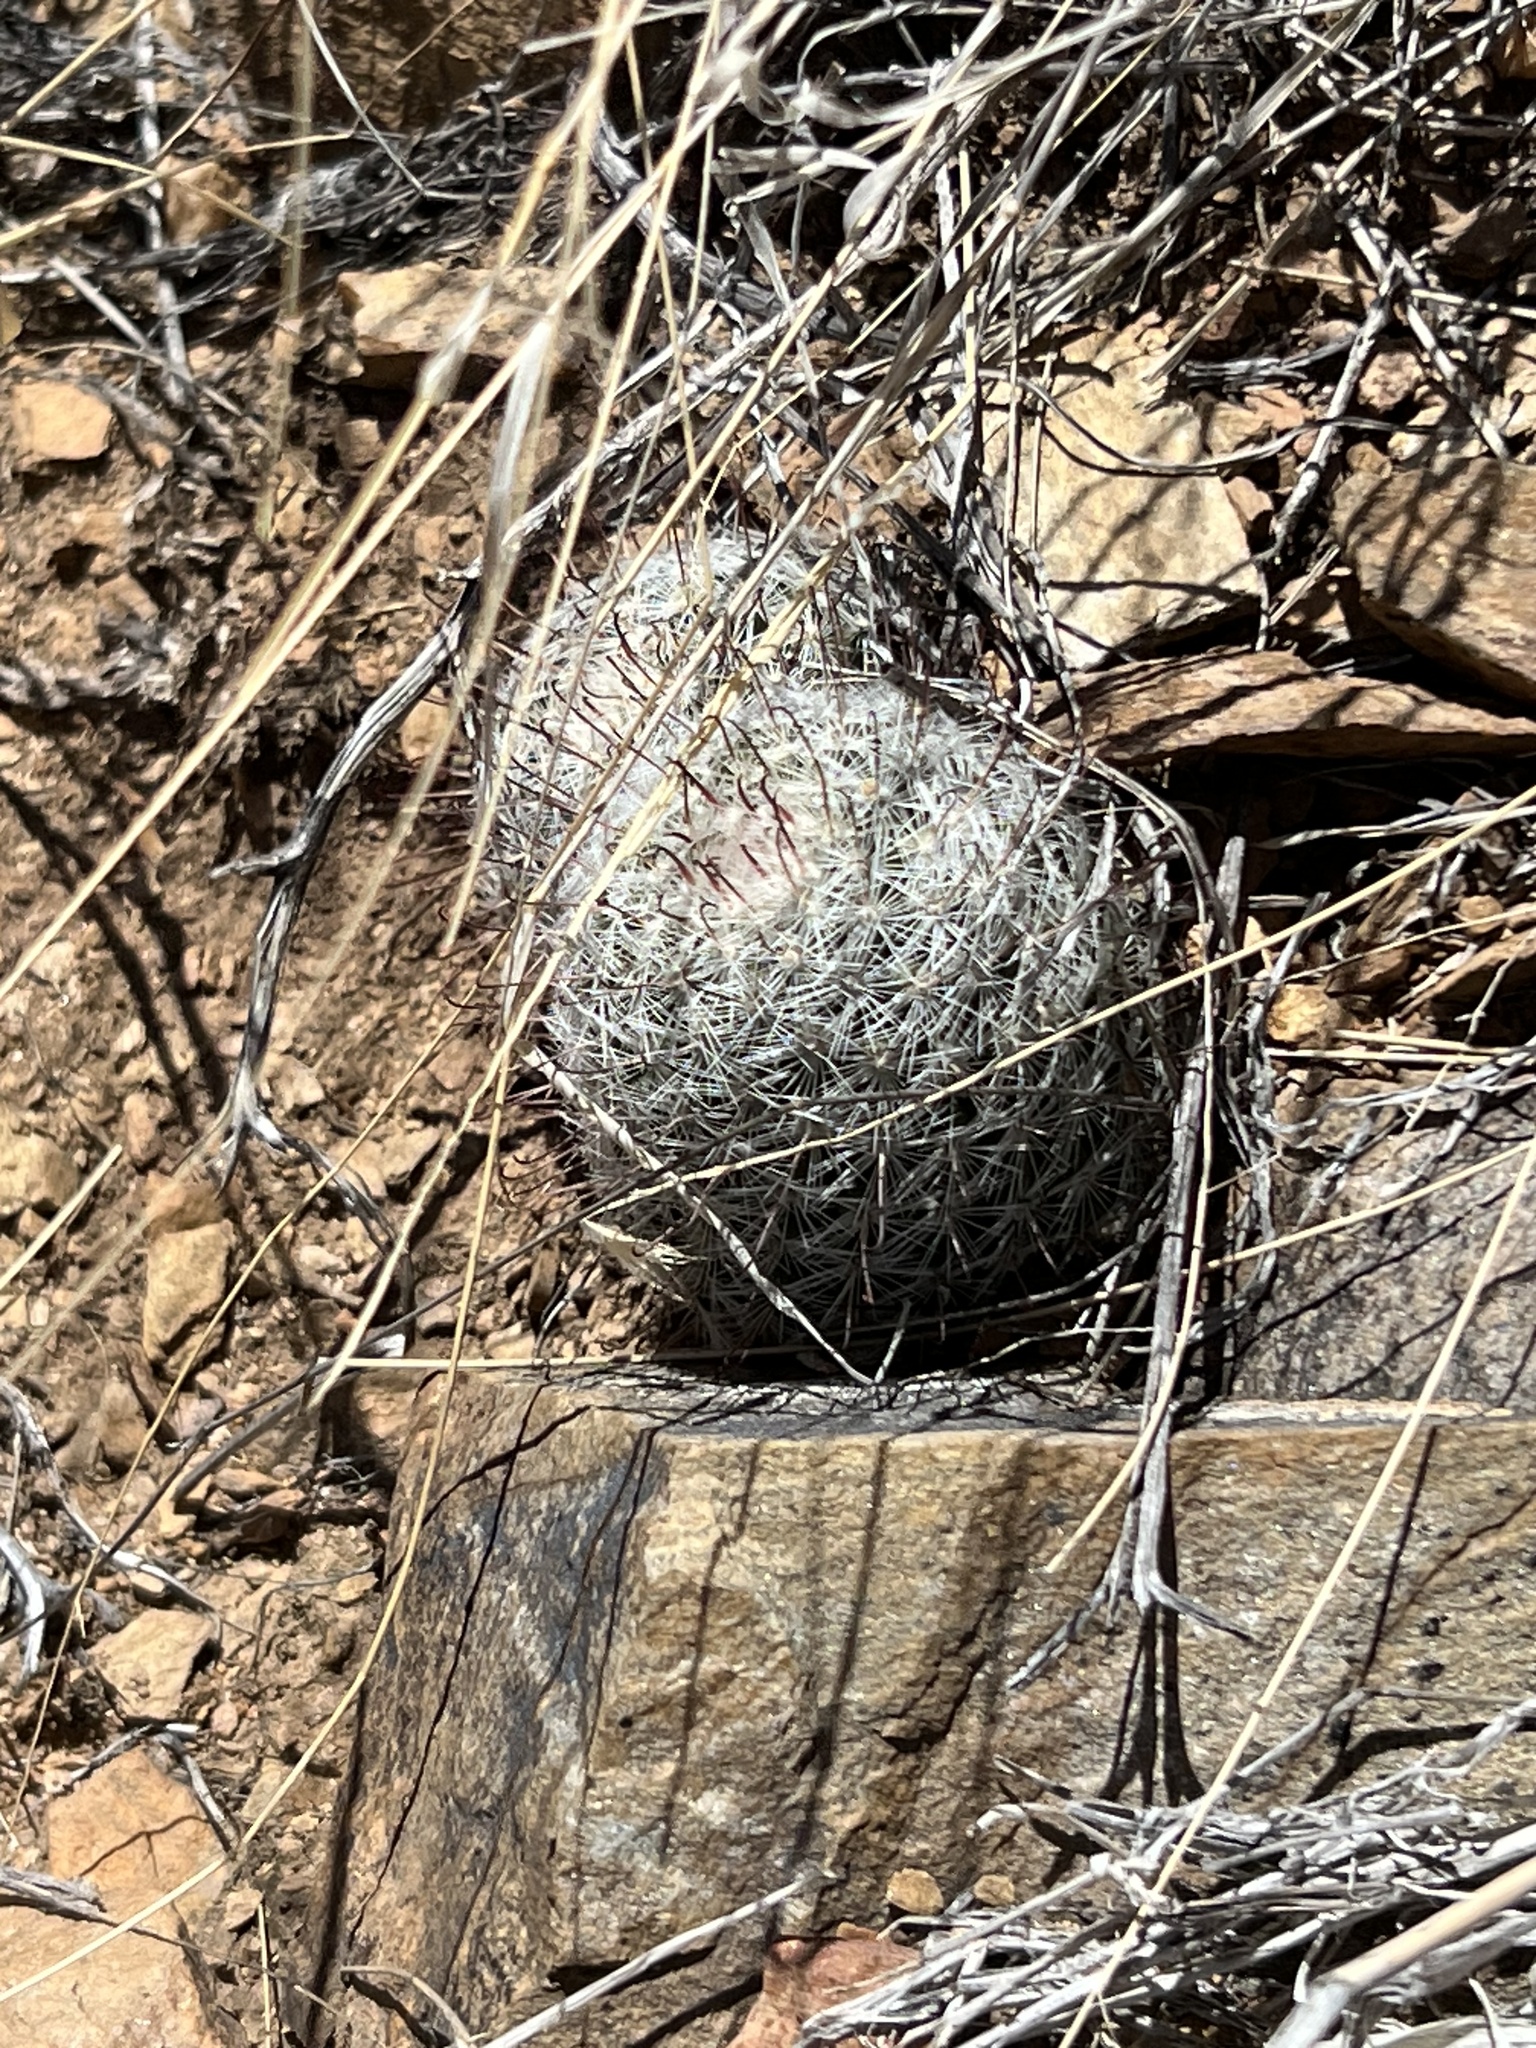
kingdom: Plantae
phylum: Tracheophyta
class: Magnoliopsida
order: Caryophyllales
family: Cactaceae
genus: Cochemiea
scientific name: Cochemiea grahamii
